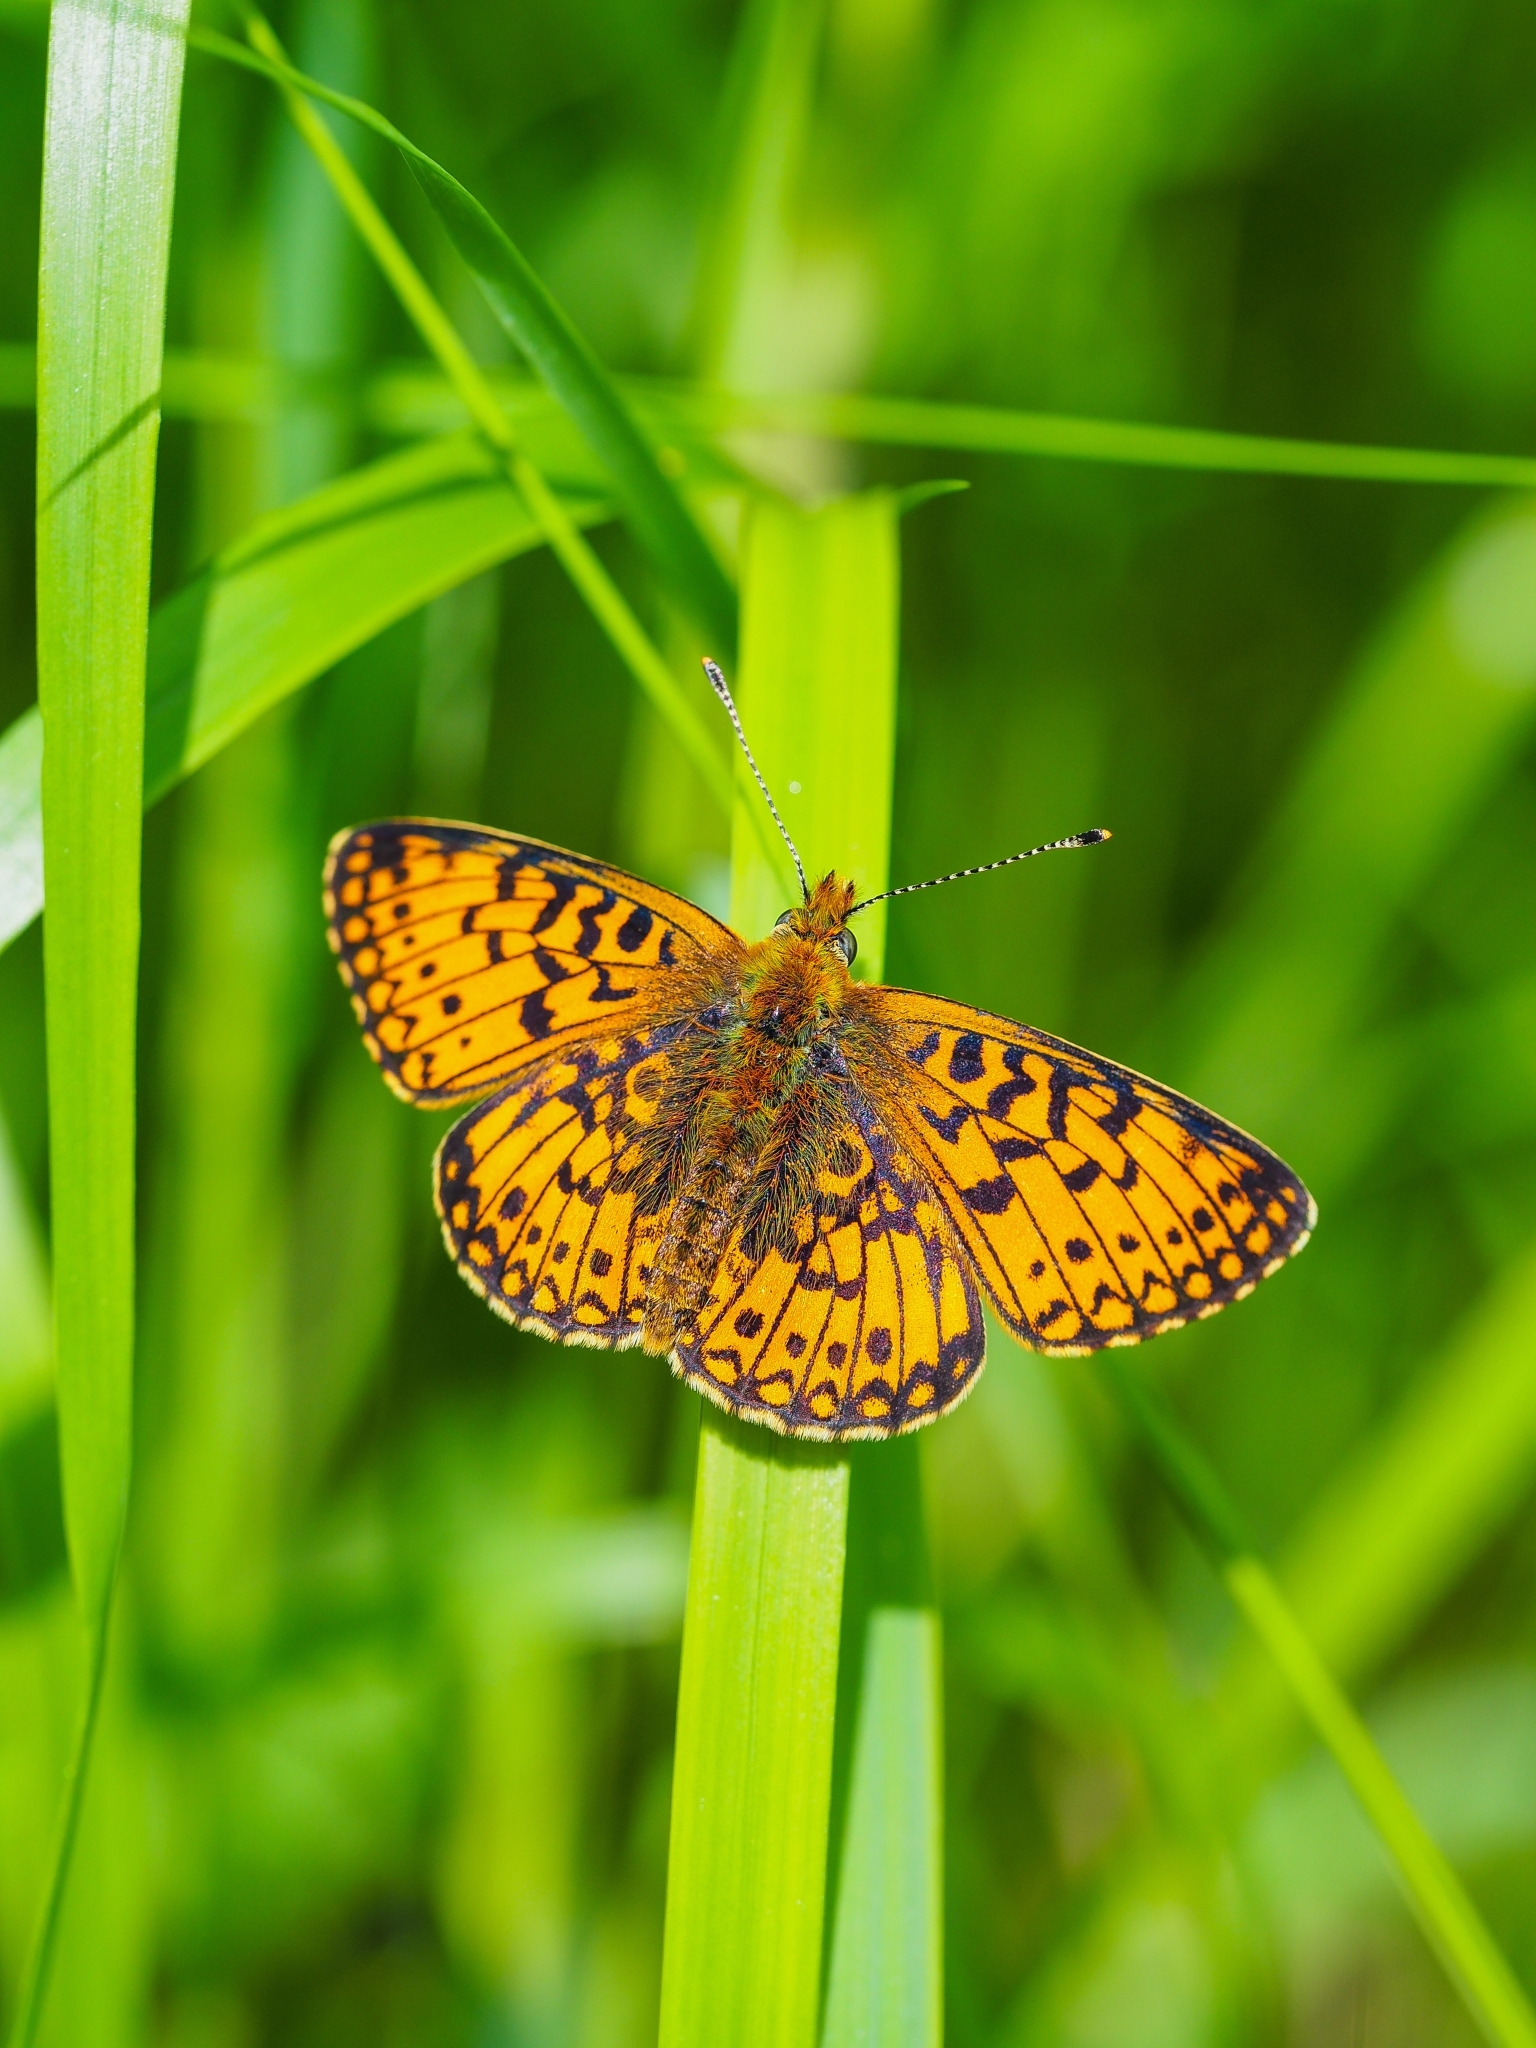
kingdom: Animalia
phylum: Arthropoda
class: Insecta
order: Lepidoptera
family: Nymphalidae
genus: Boloria
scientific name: Boloria selene
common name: Small pearl-bordered fritillary
